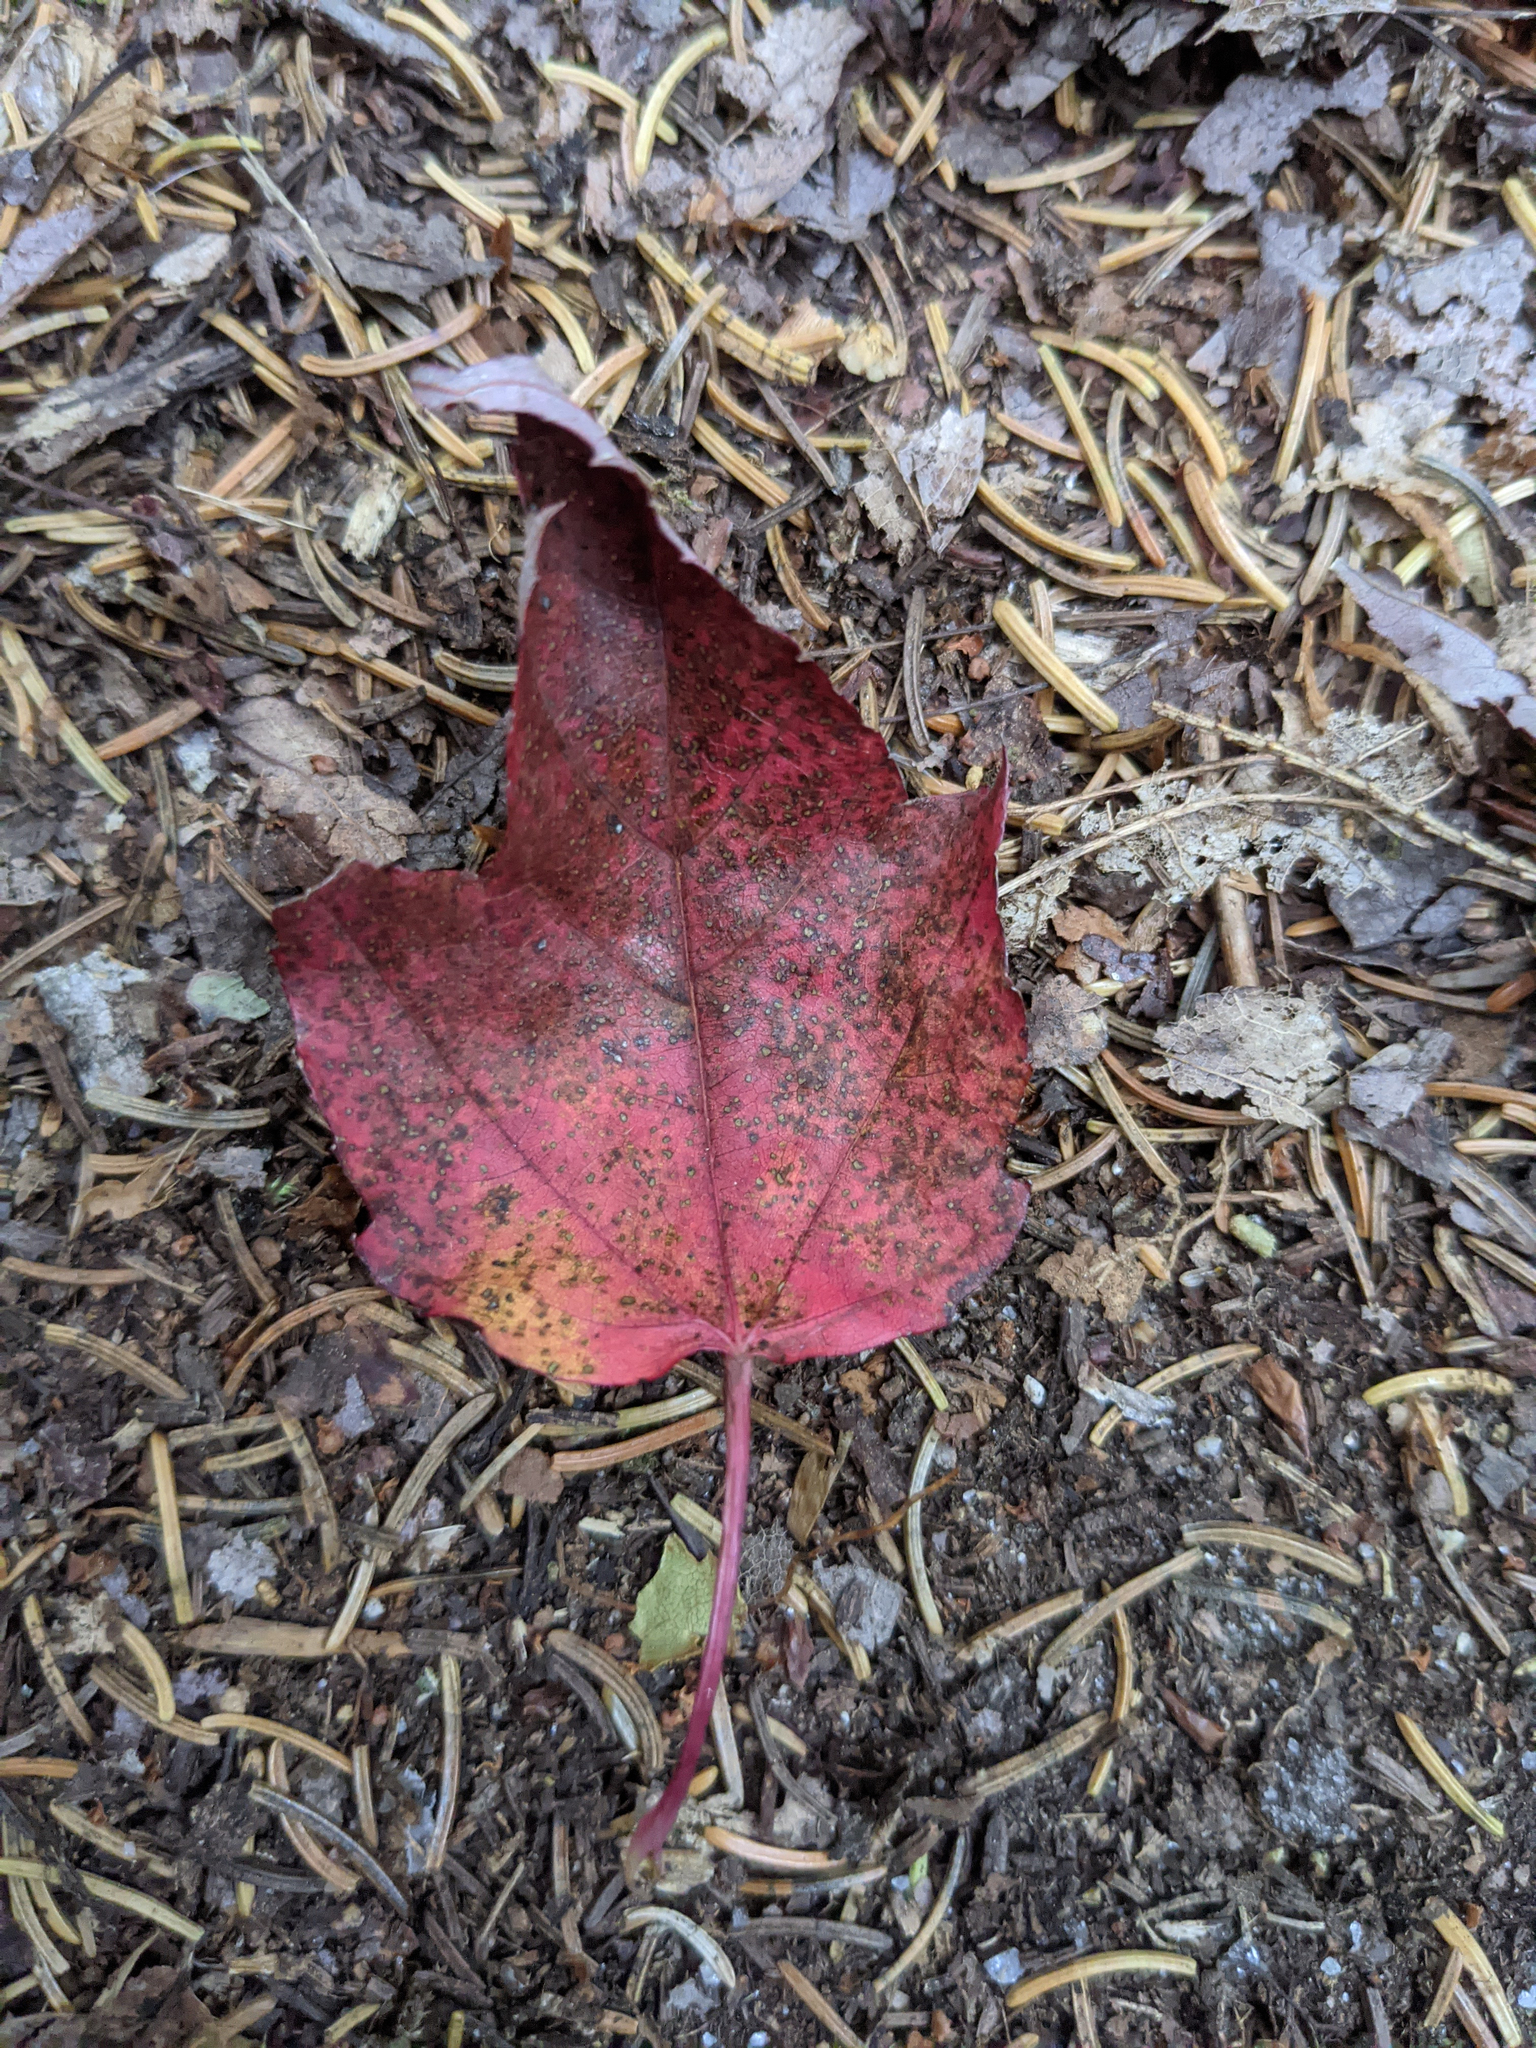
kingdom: Plantae
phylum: Tracheophyta
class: Magnoliopsida
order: Sapindales
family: Sapindaceae
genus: Acer
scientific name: Acer rubrum
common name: Red maple
